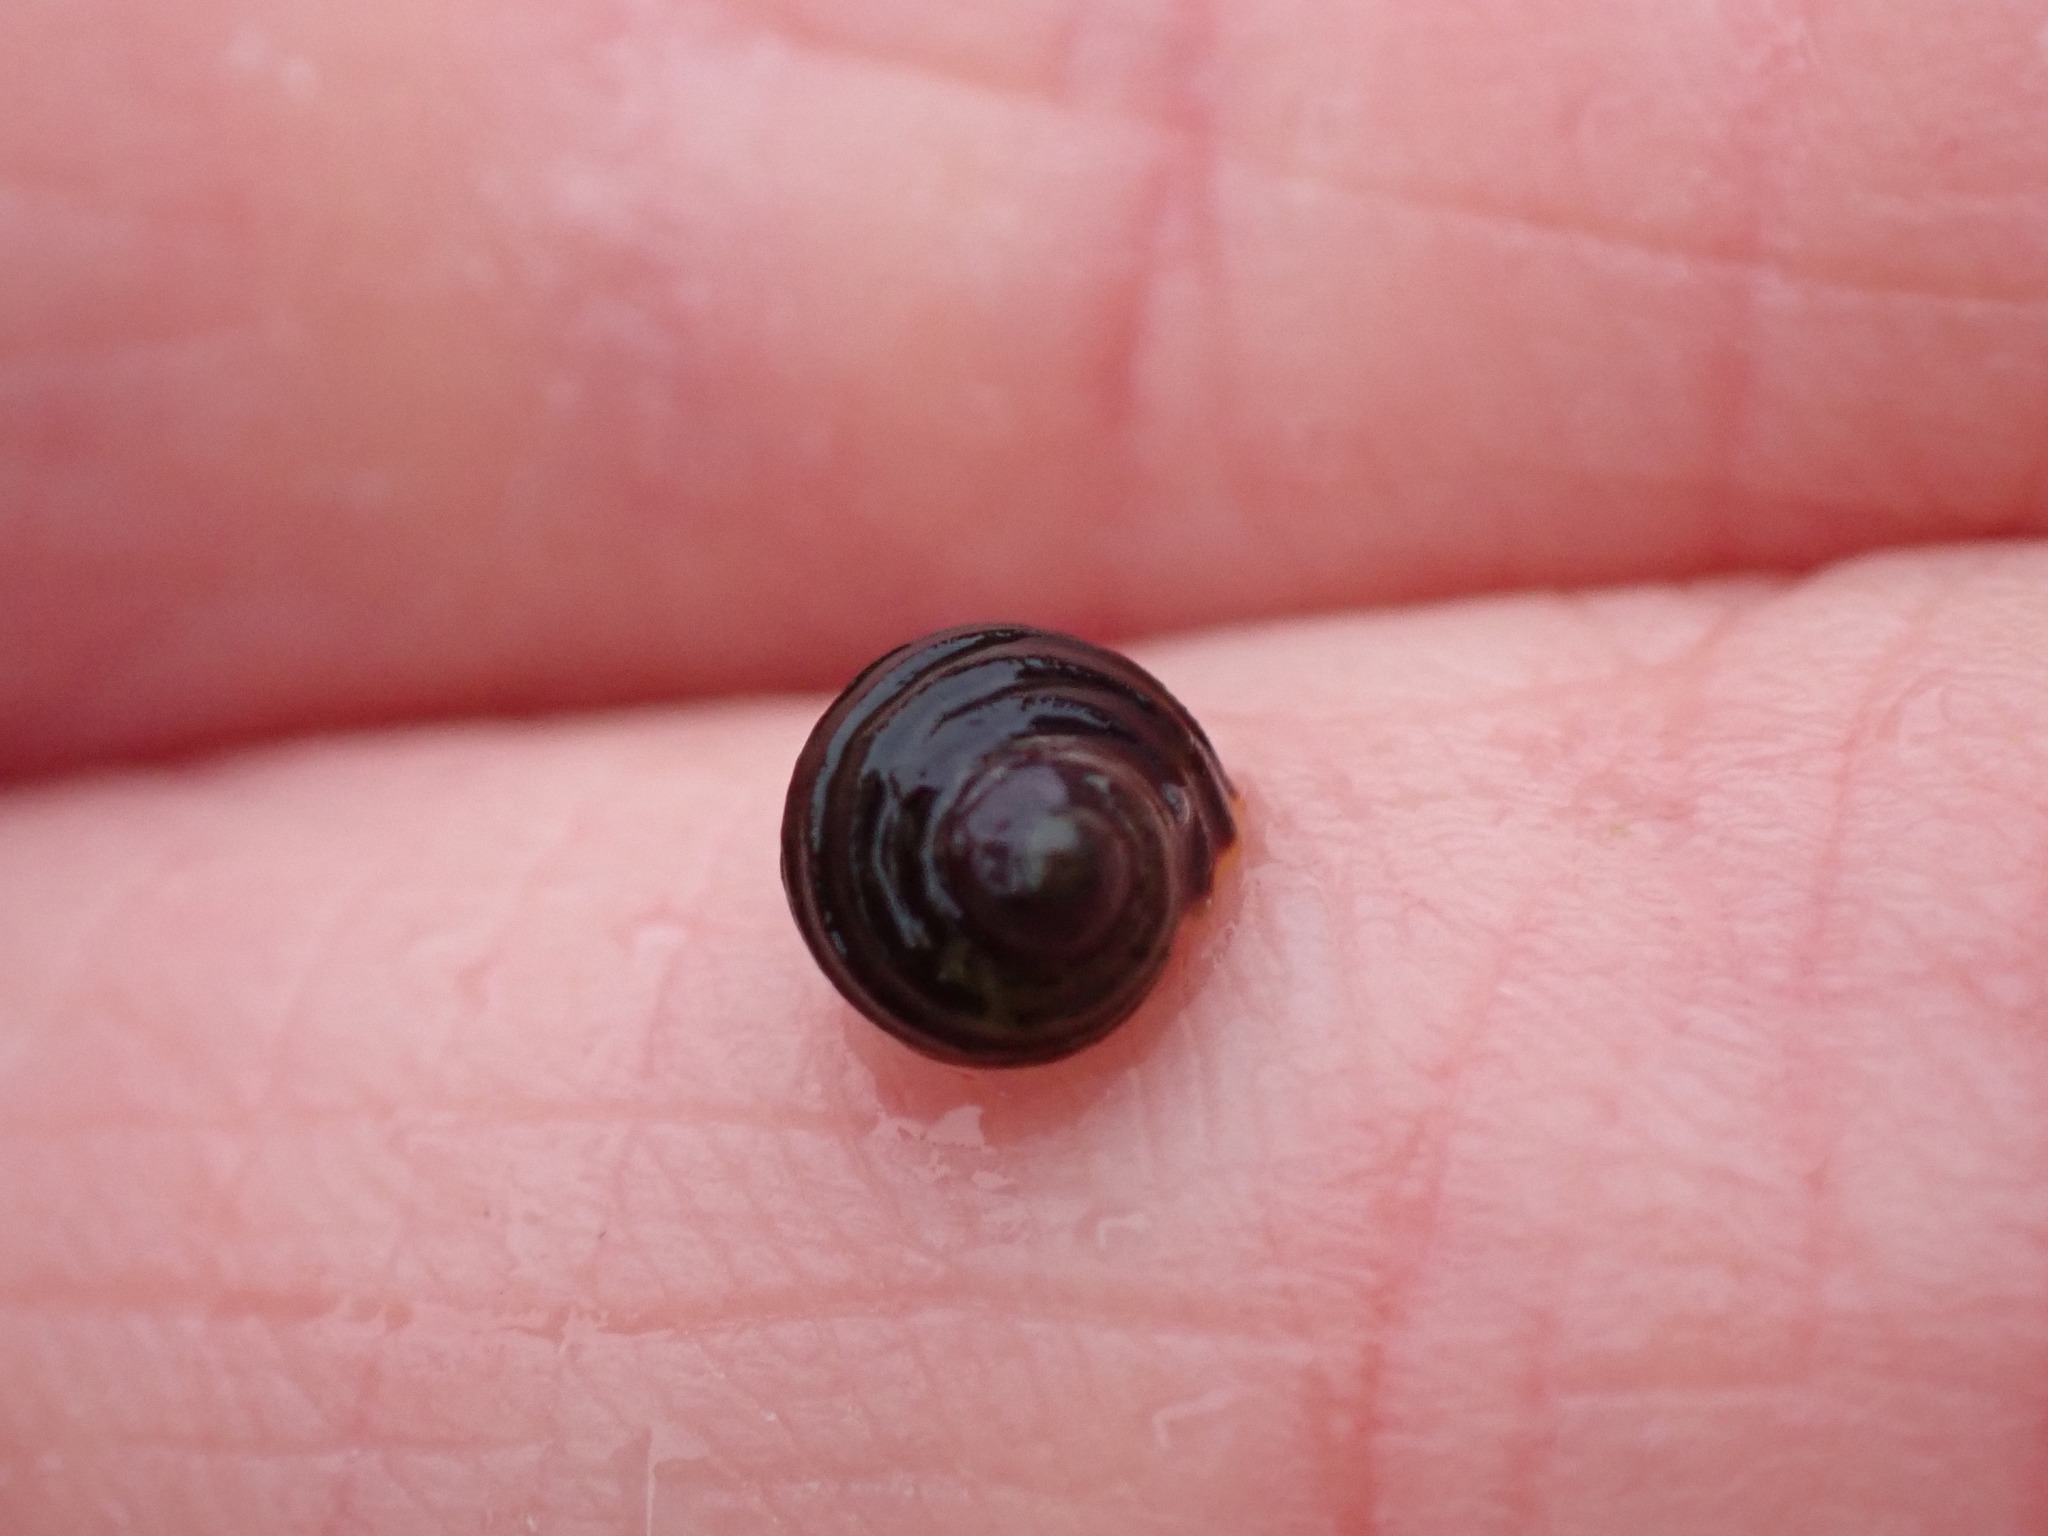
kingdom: Animalia
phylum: Mollusca
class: Gastropoda
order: Littorinimorpha
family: Littorinidae
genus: Littorina
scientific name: Littorina sitkana
